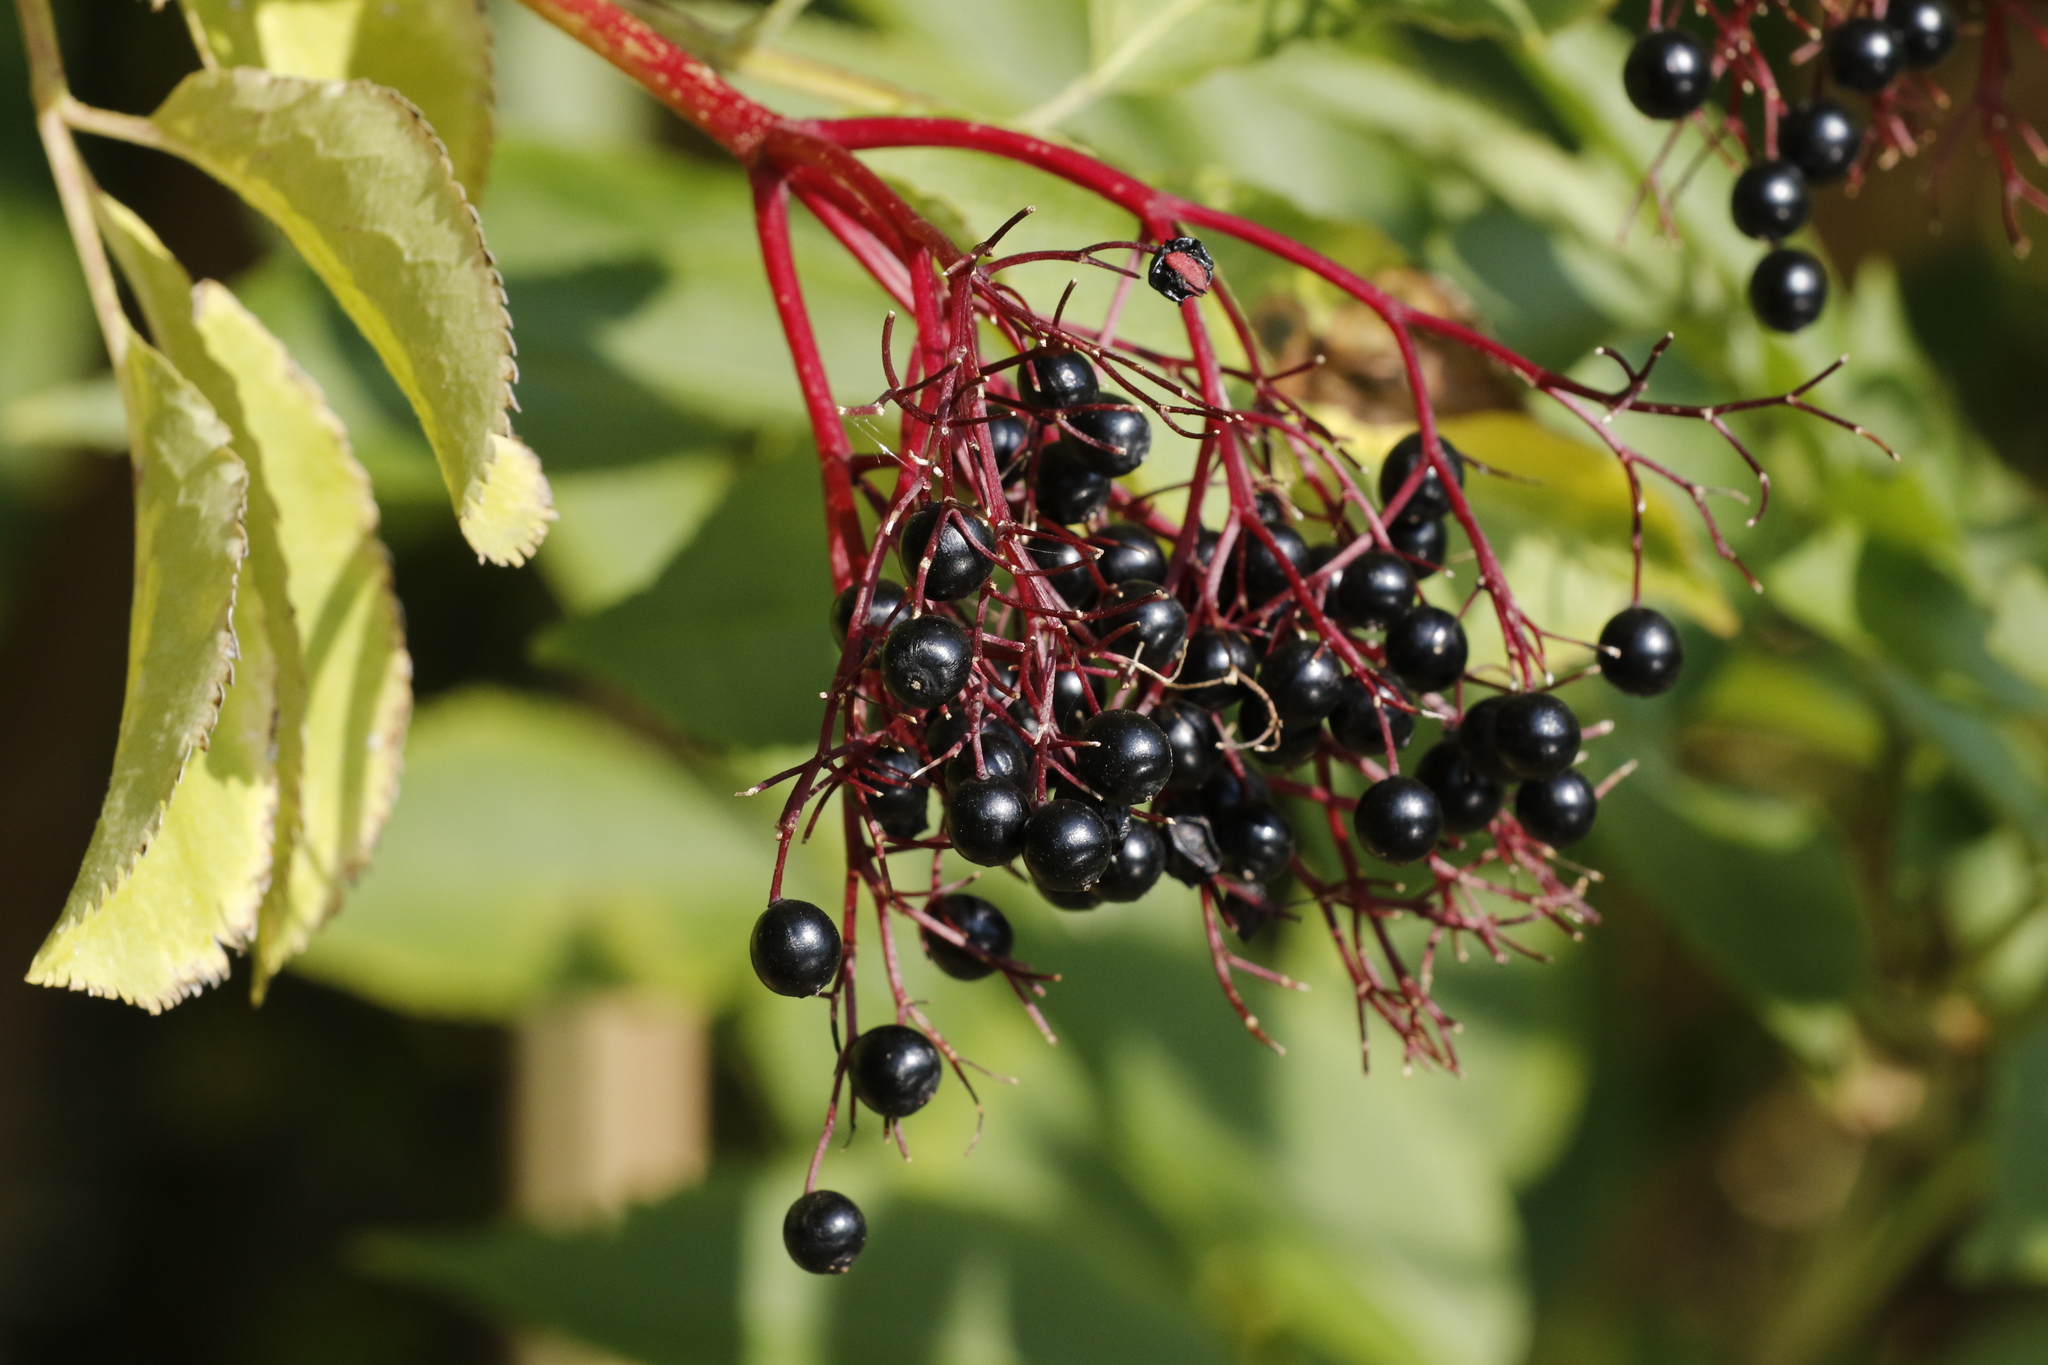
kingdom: Plantae
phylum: Tracheophyta
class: Magnoliopsida
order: Dipsacales
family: Viburnaceae
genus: Sambucus
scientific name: Sambucus nigra
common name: Elder
